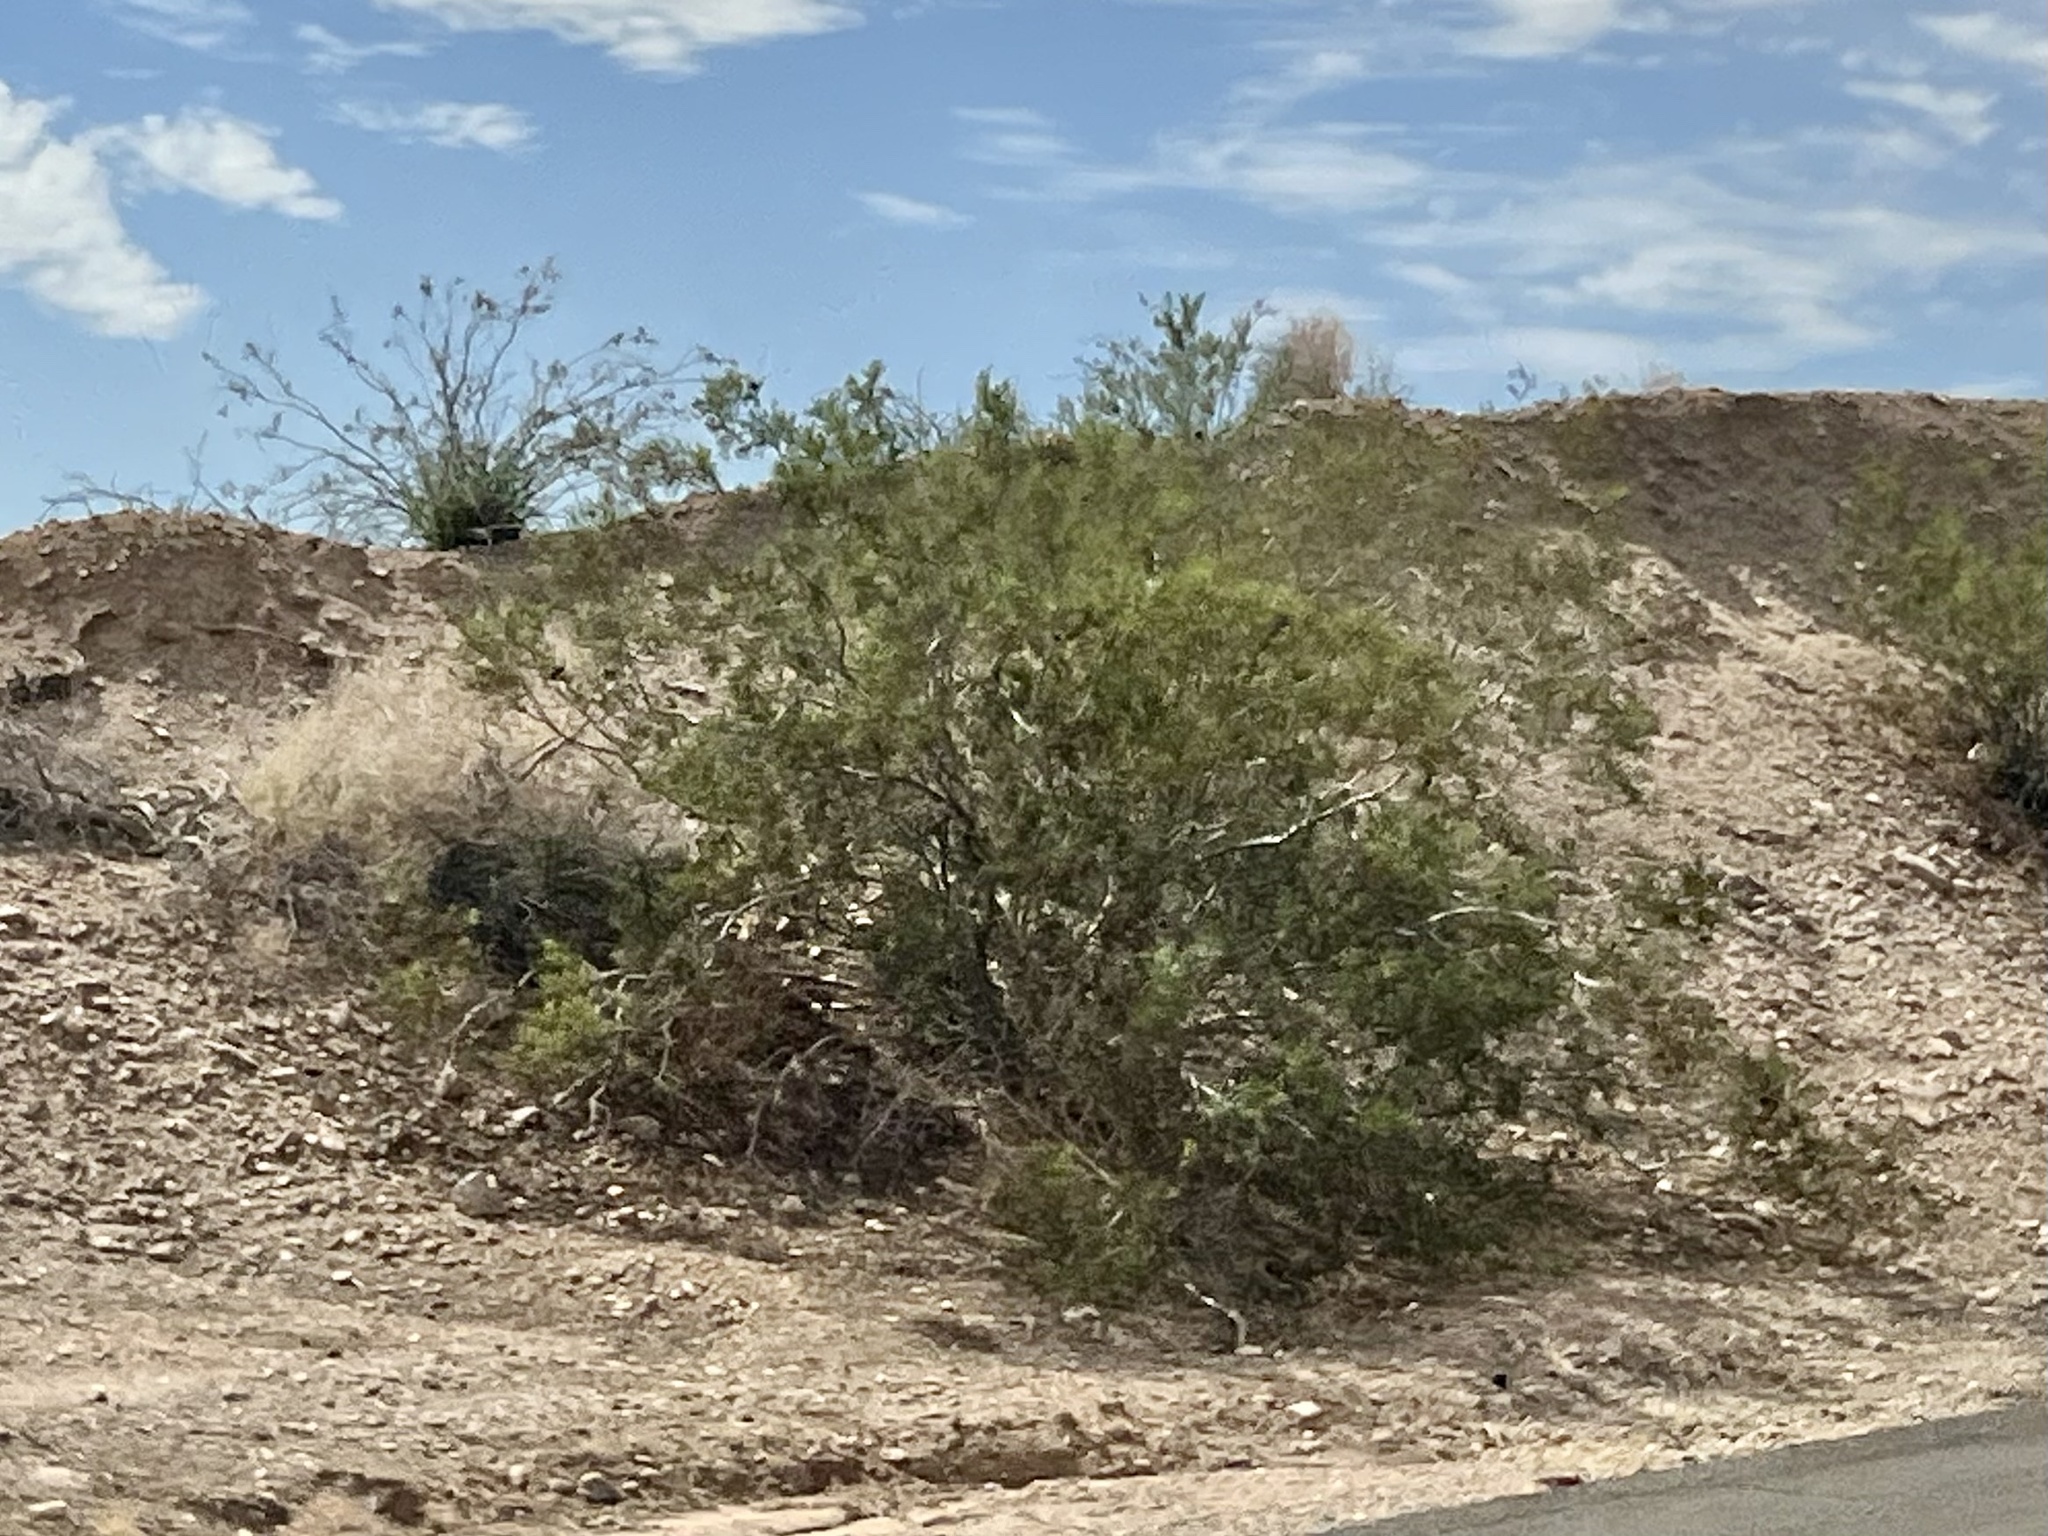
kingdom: Plantae
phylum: Tracheophyta
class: Magnoliopsida
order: Zygophyllales
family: Zygophyllaceae
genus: Larrea
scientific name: Larrea tridentata
